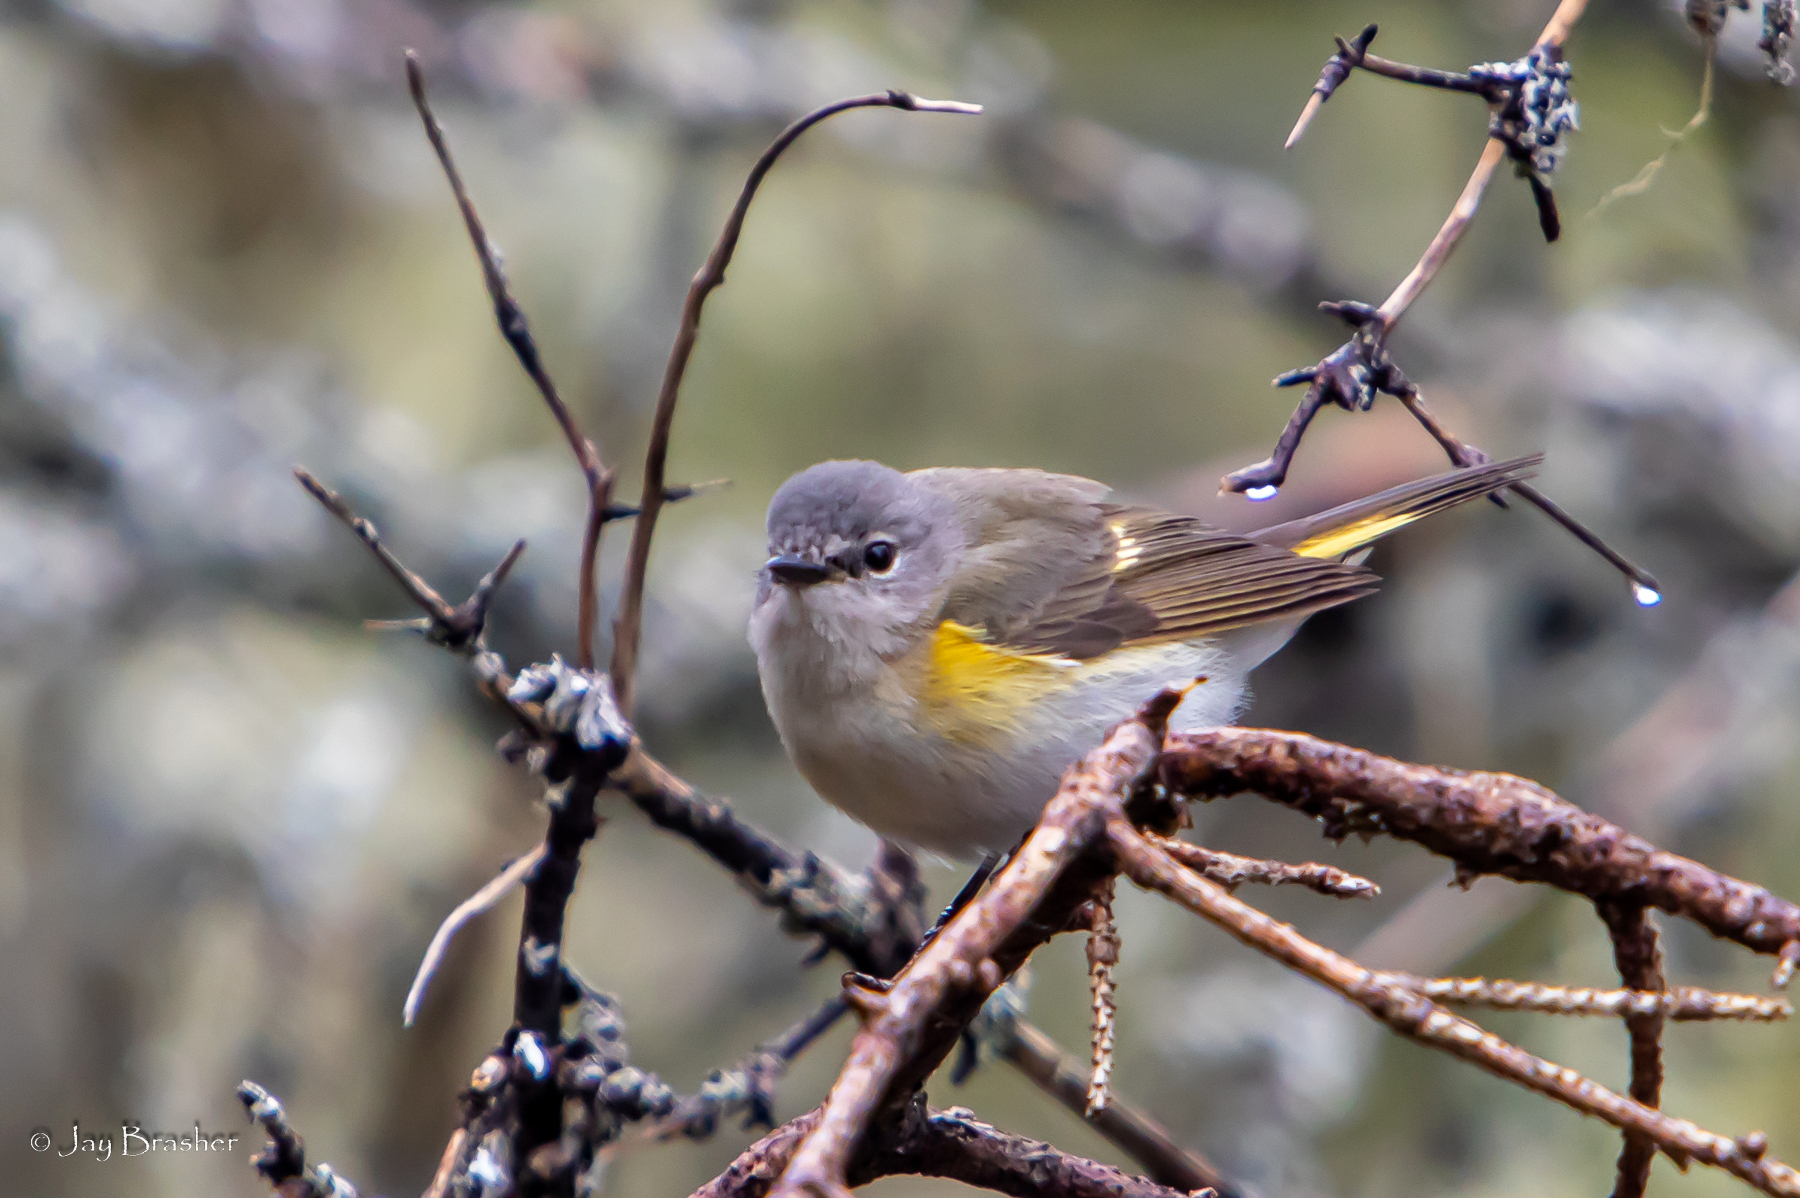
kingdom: Animalia
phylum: Chordata
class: Aves
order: Passeriformes
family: Parulidae
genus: Setophaga
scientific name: Setophaga ruticilla
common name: American redstart
